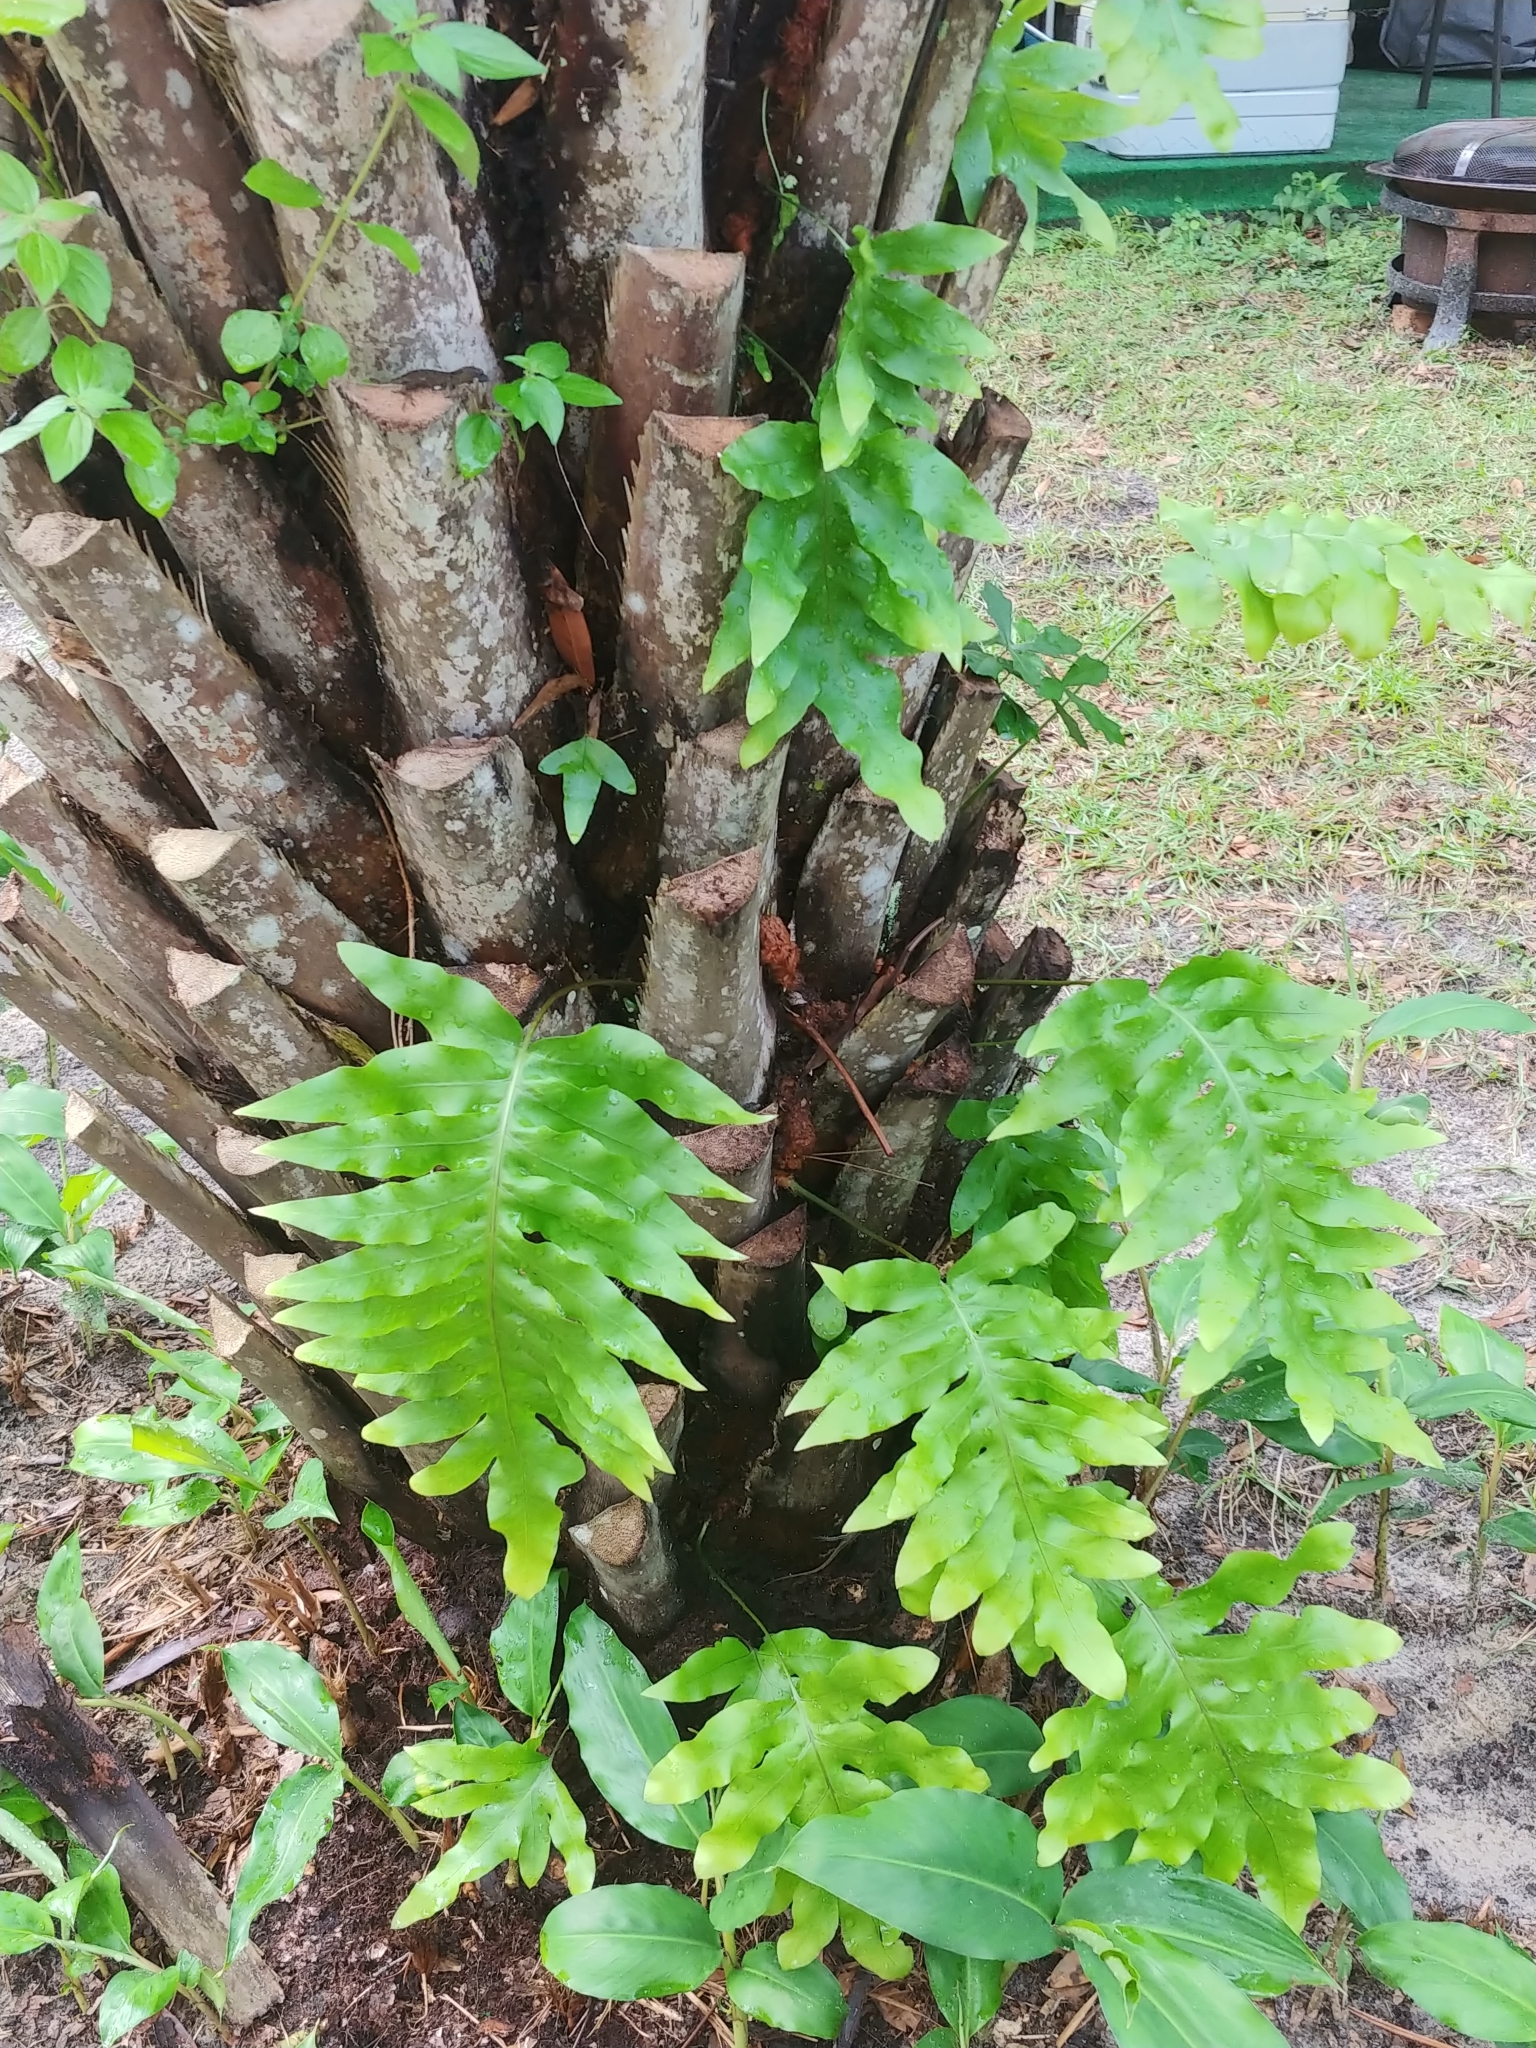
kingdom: Plantae
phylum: Tracheophyta
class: Polypodiopsida
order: Polypodiales
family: Polypodiaceae
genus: Phlebodium
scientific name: Phlebodium aureum
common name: Gold-foot fern
